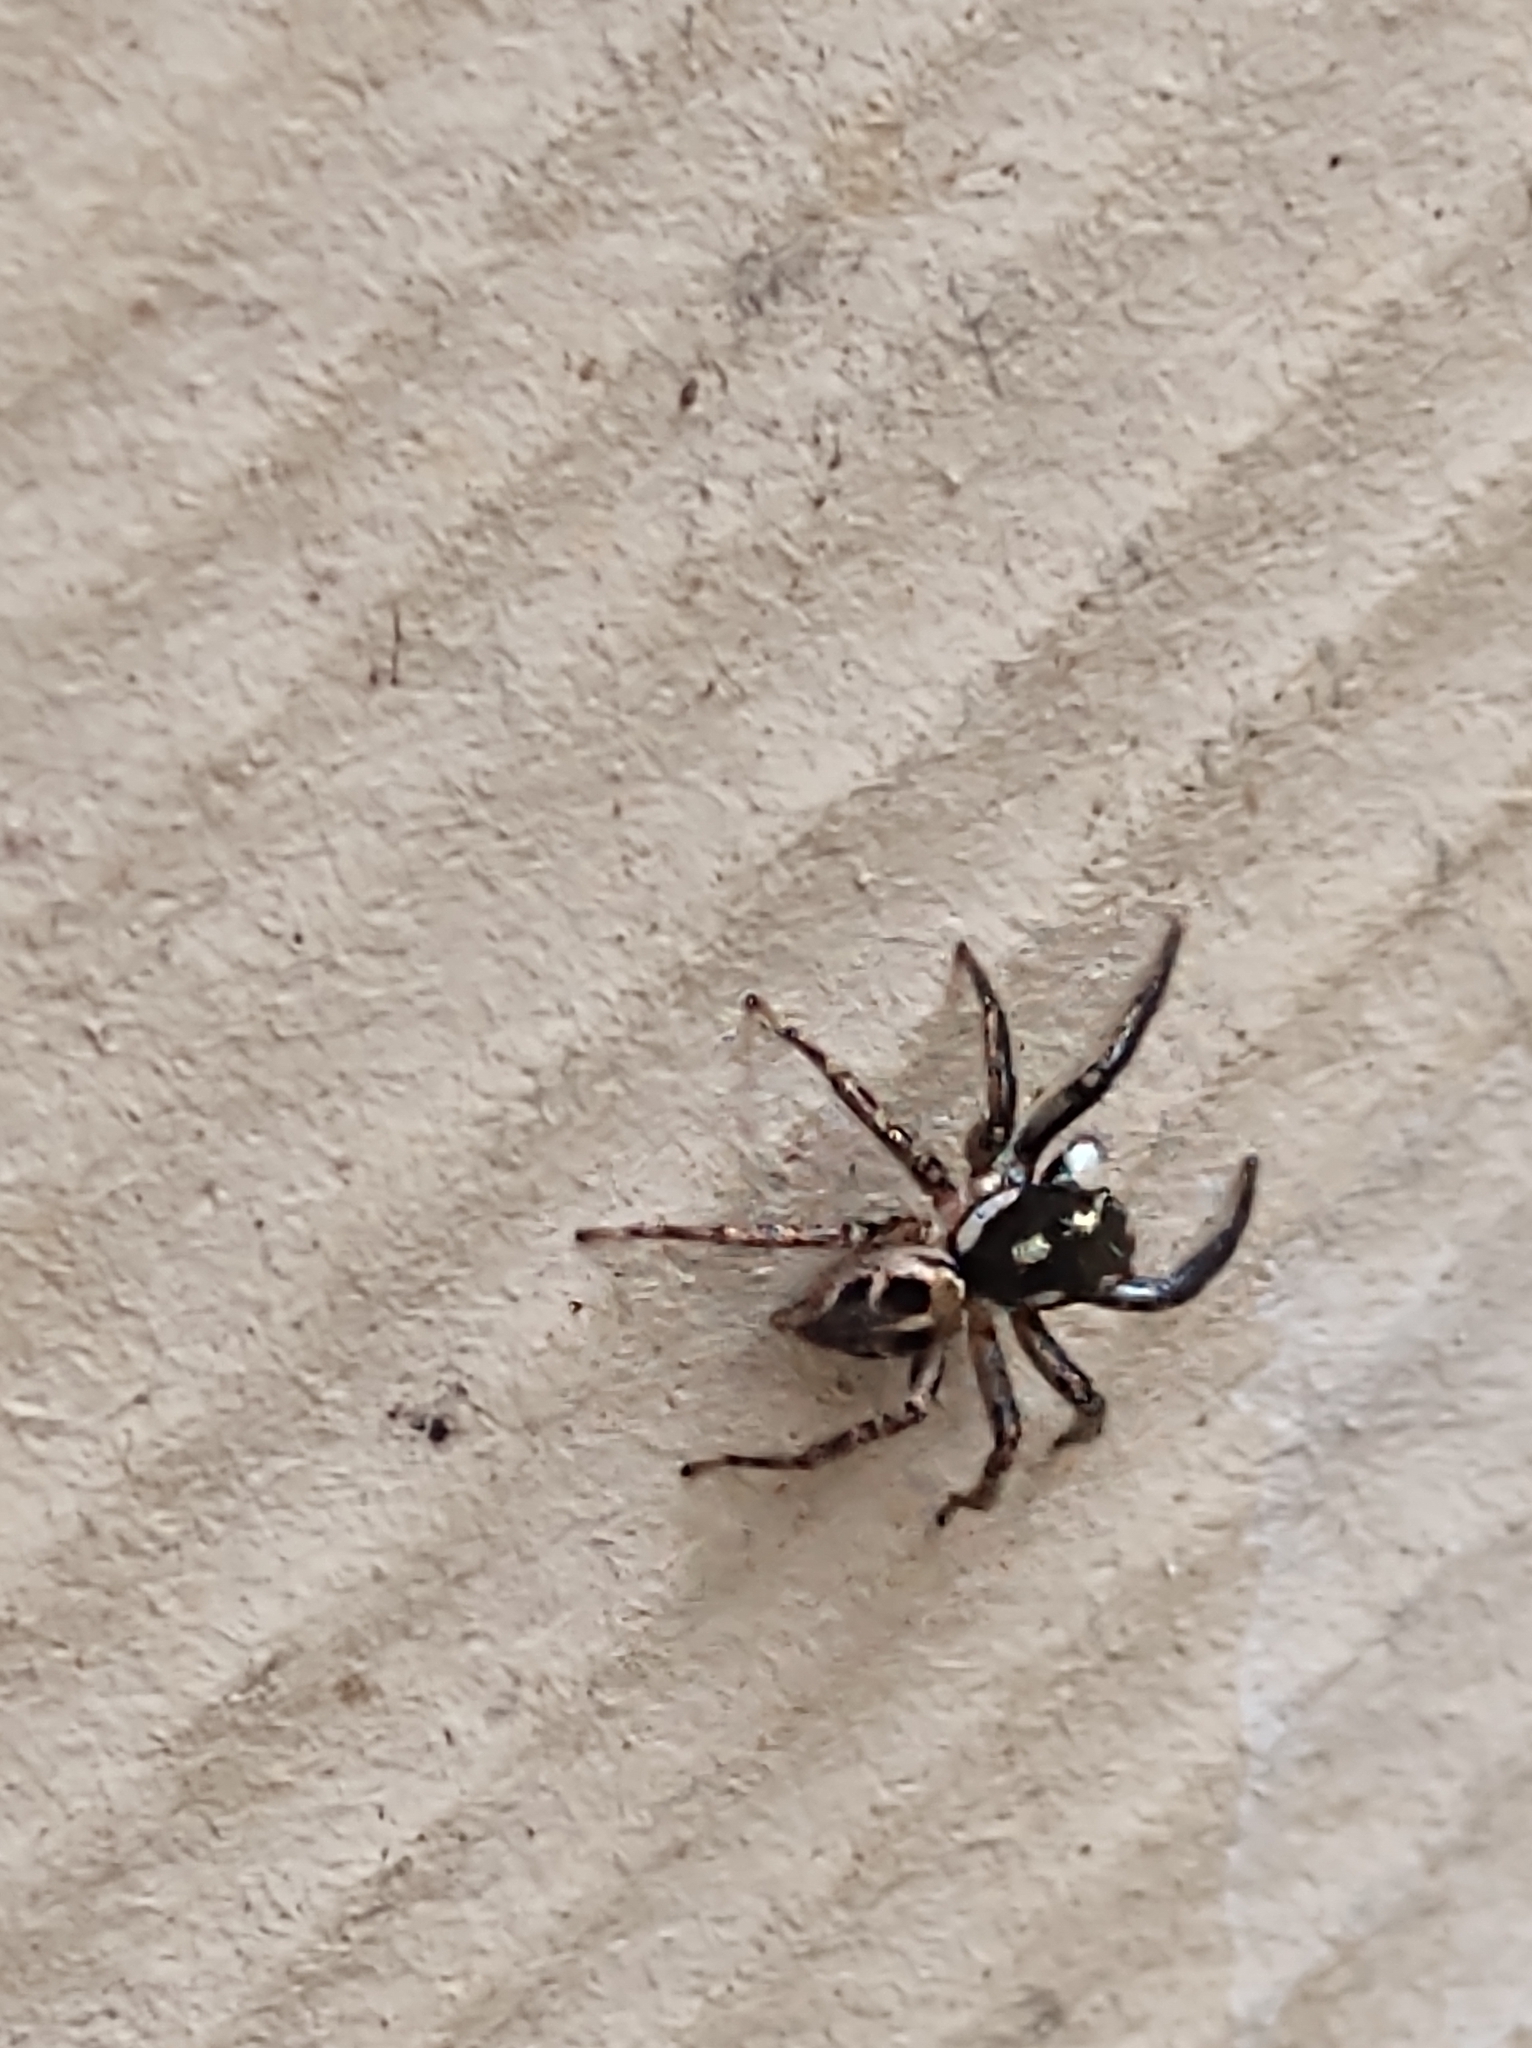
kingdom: Animalia
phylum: Arthropoda
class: Arachnida
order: Araneae
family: Salticidae
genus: Anasaitis
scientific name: Anasaitis canosa
